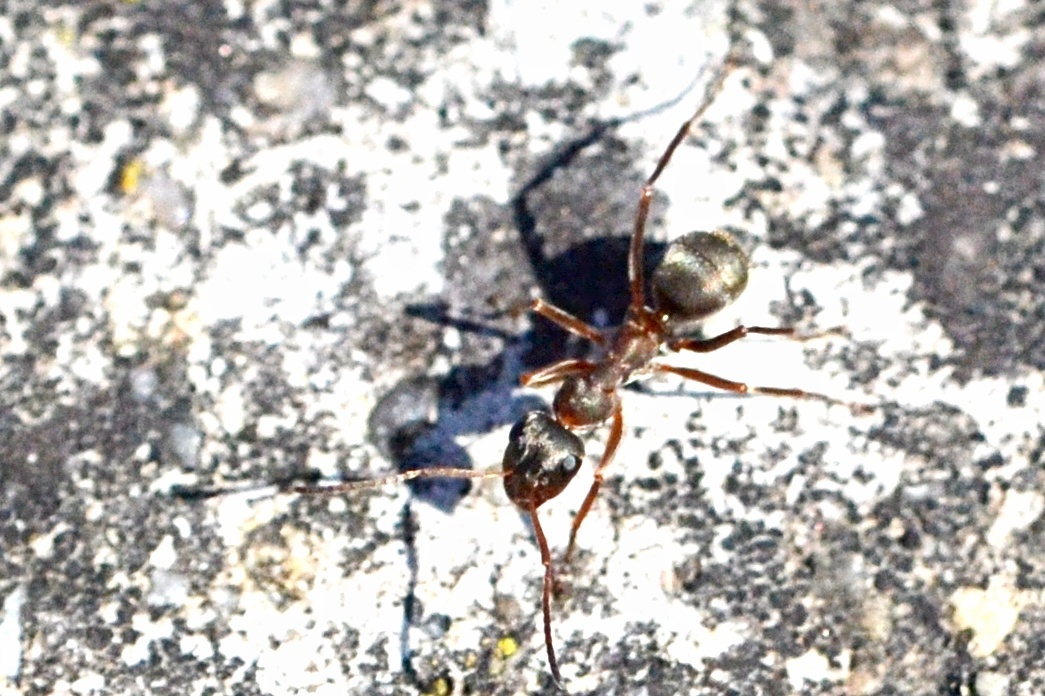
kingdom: Animalia
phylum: Arthropoda
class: Insecta
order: Hymenoptera
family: Formicidae
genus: Formica
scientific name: Formica cunicularia
